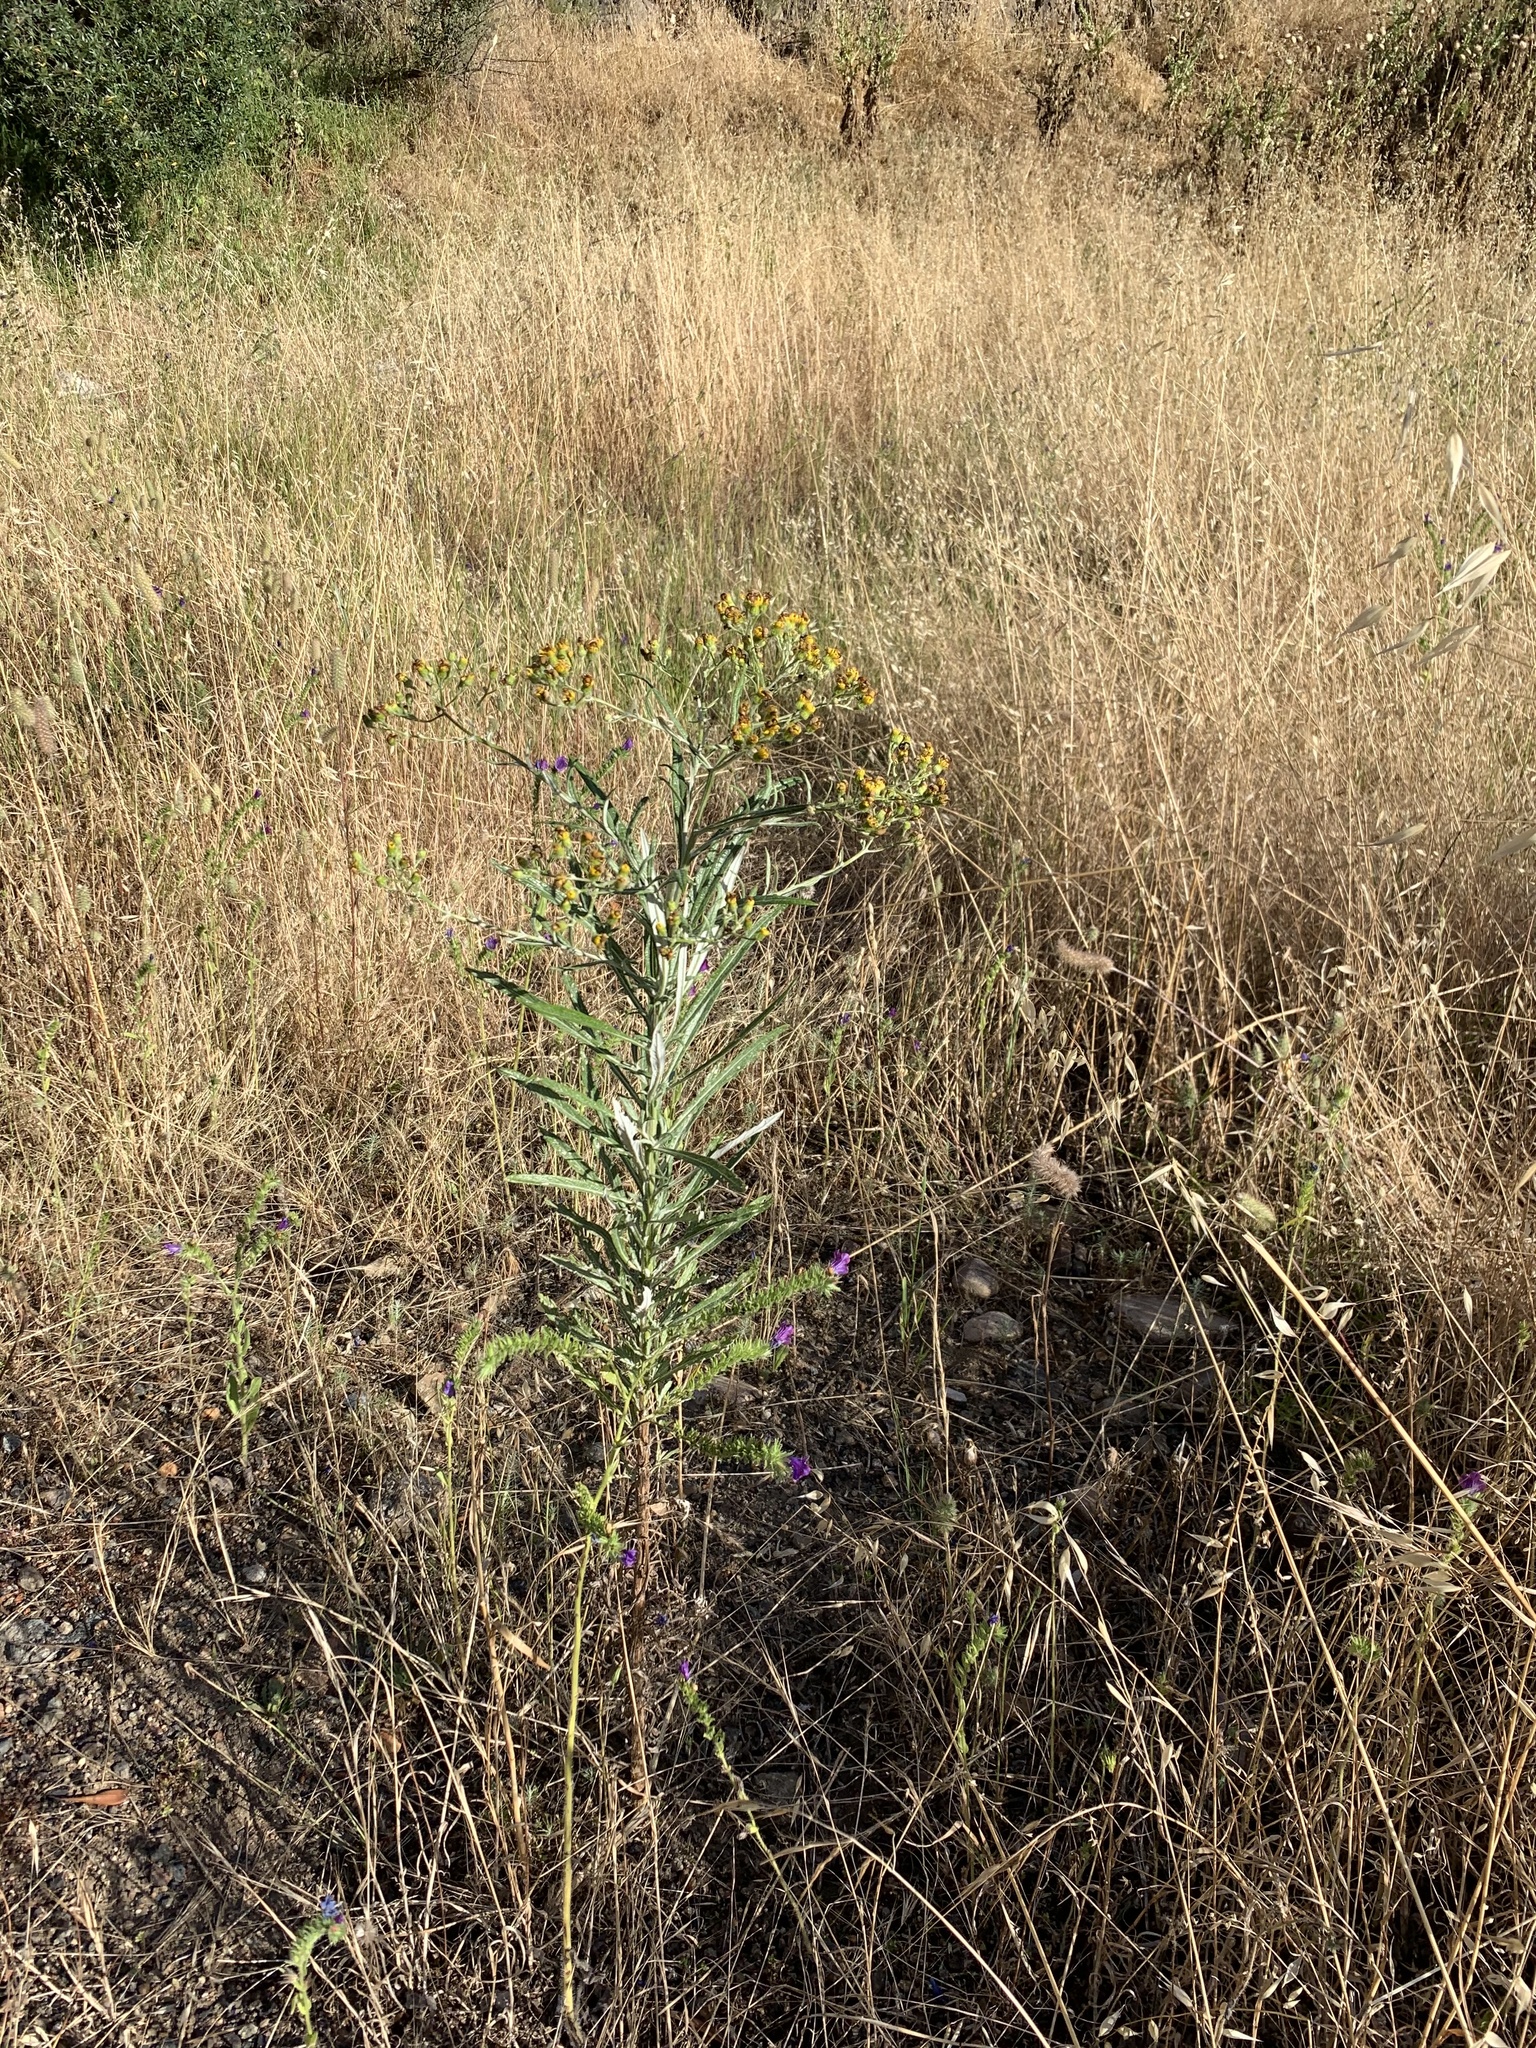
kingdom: Plantae
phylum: Tracheophyta
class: Magnoliopsida
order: Asterales
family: Asteraceae
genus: Senecio
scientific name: Senecio pterophorus
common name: Shoddy ragwort
